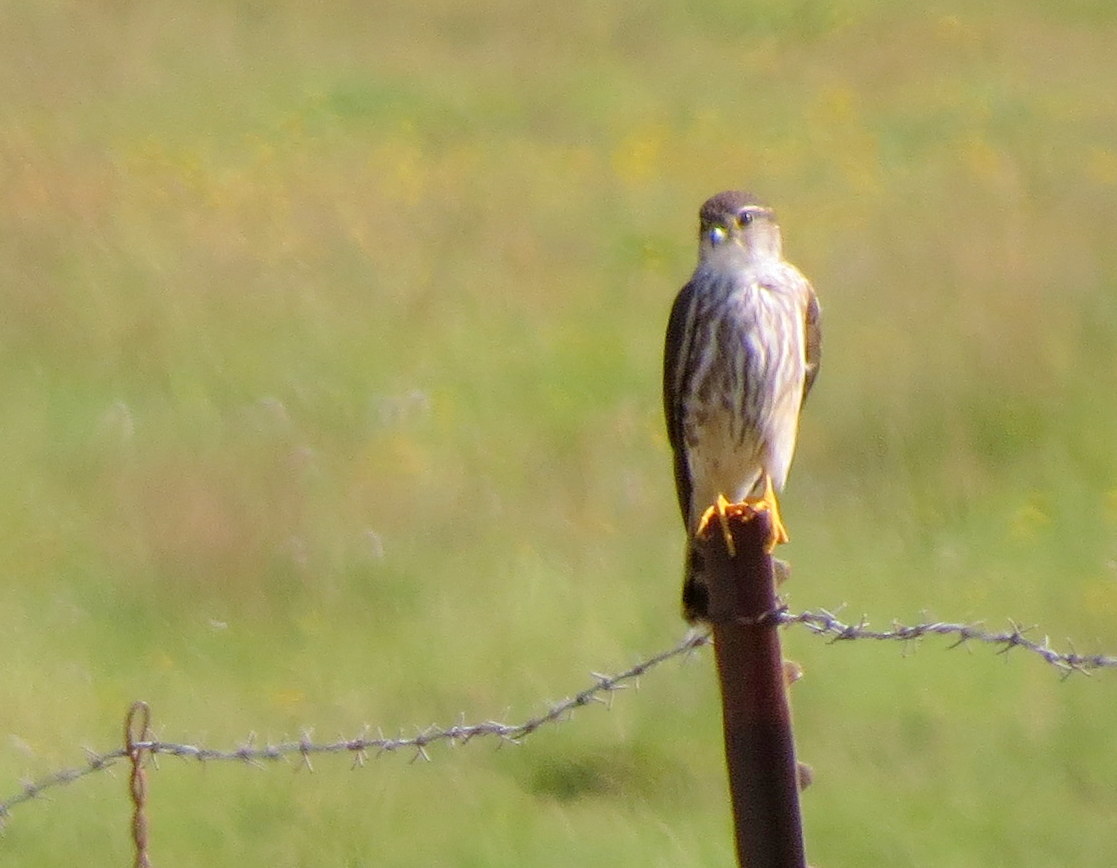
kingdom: Animalia
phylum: Chordata
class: Aves
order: Falconiformes
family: Falconidae
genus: Falco
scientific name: Falco columbarius
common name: Merlin
